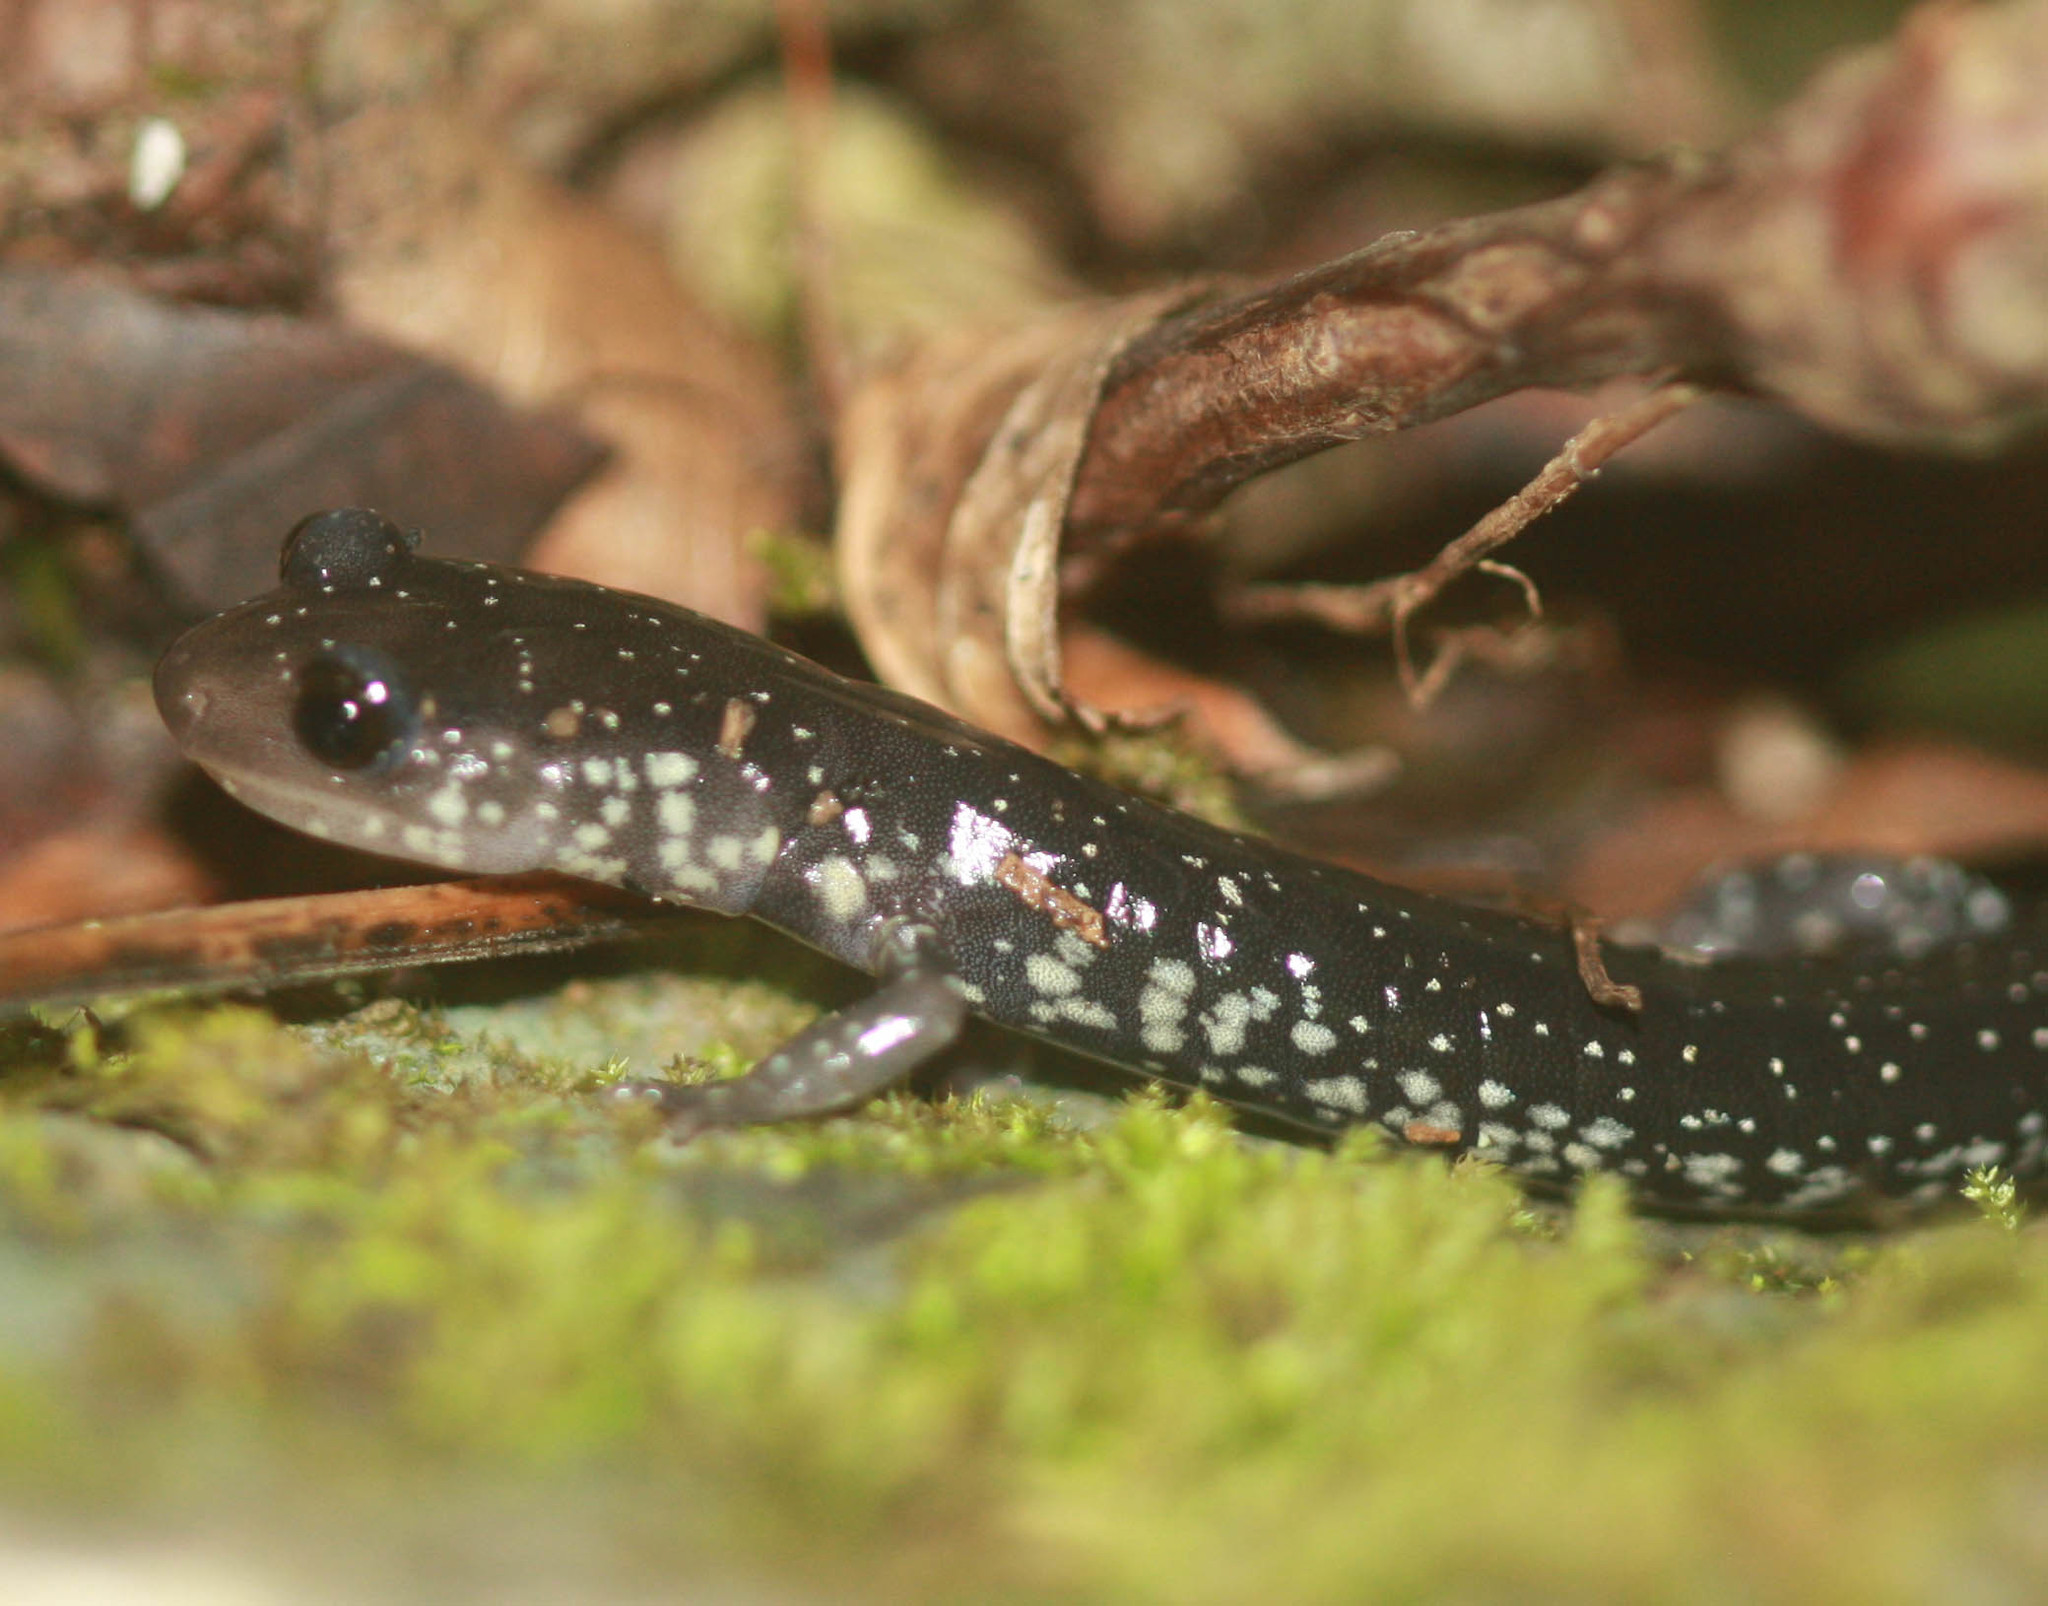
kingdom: Animalia
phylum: Chordata
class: Amphibia
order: Caudata
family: Plethodontidae
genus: Plethodon
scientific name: Plethodon albagula
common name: Western slimy salamander
